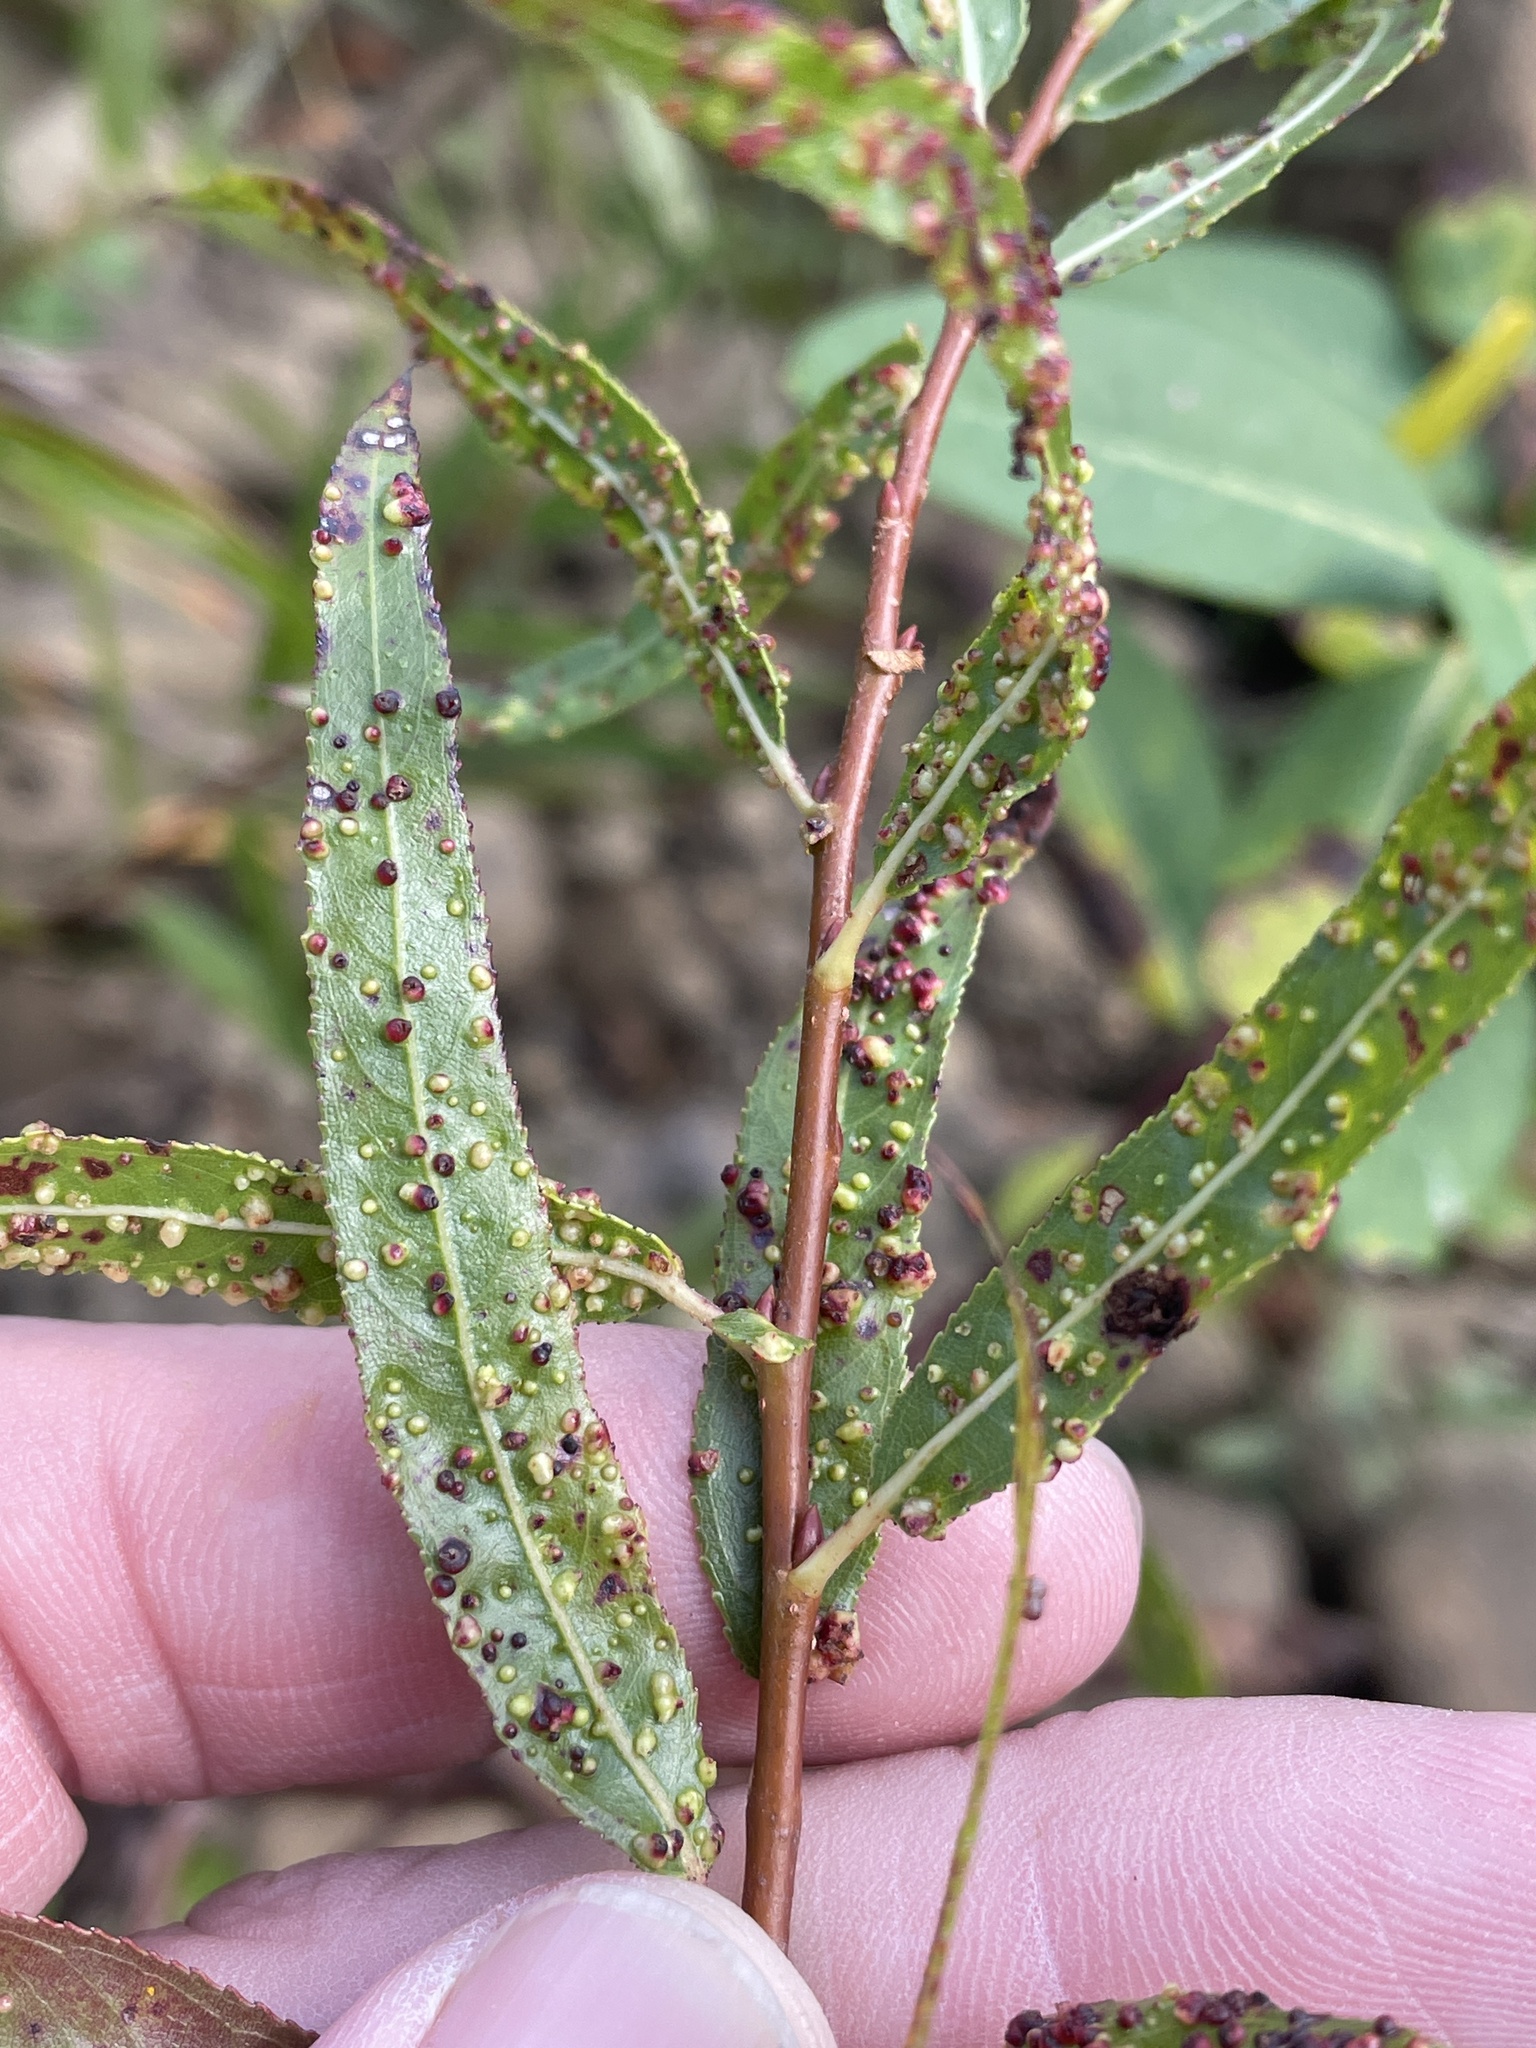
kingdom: Animalia
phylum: Arthropoda
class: Arachnida
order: Trombidiformes
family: Eriophyidae
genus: Aculus
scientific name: Aculus tetanothrix
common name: Willow bead gall mite
